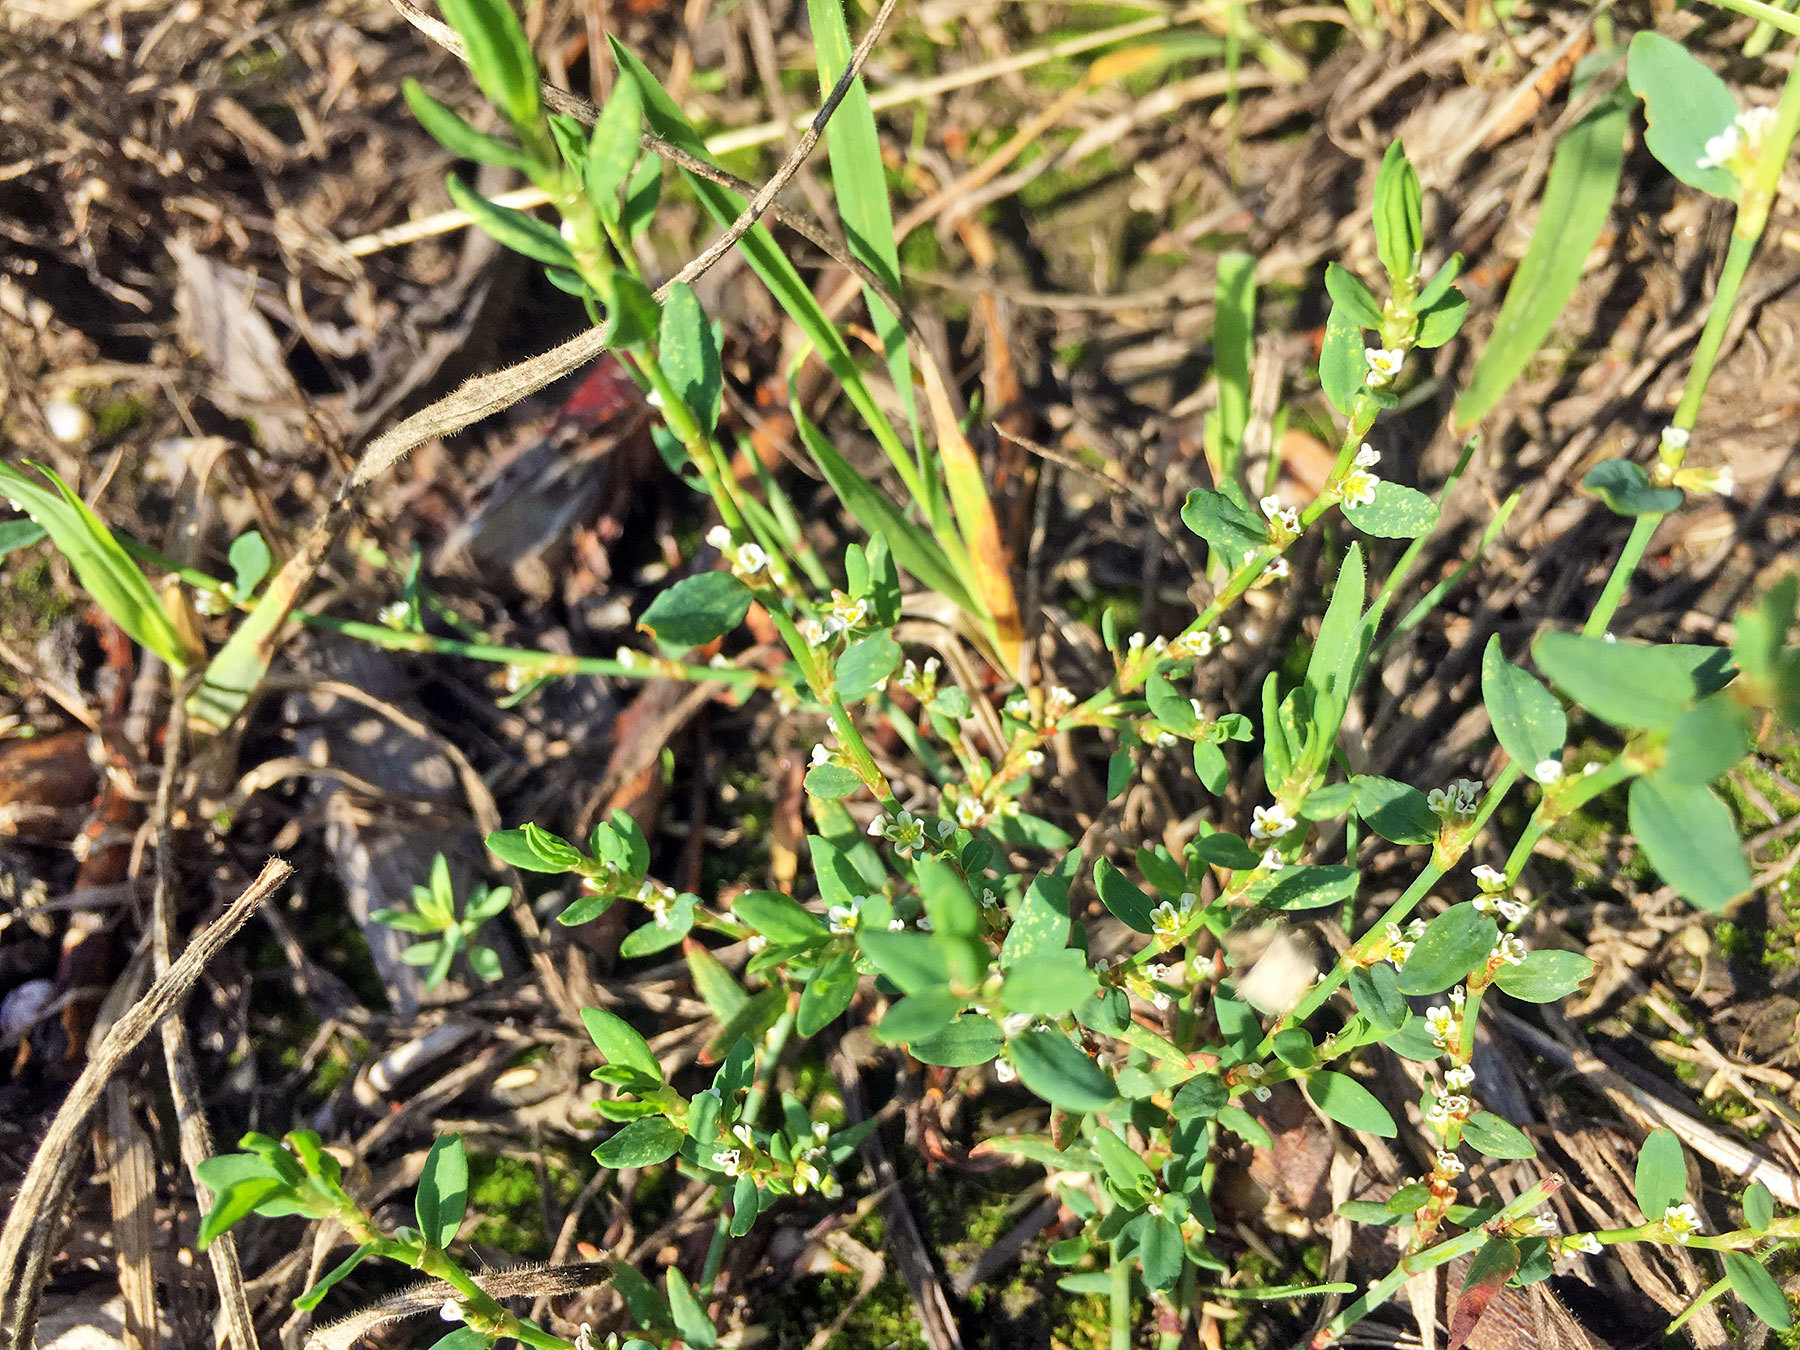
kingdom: Plantae
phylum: Tracheophyta
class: Magnoliopsida
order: Caryophyllales
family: Polygonaceae
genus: Polygonum
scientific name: Polygonum aviculare
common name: Prostrate knotweed
